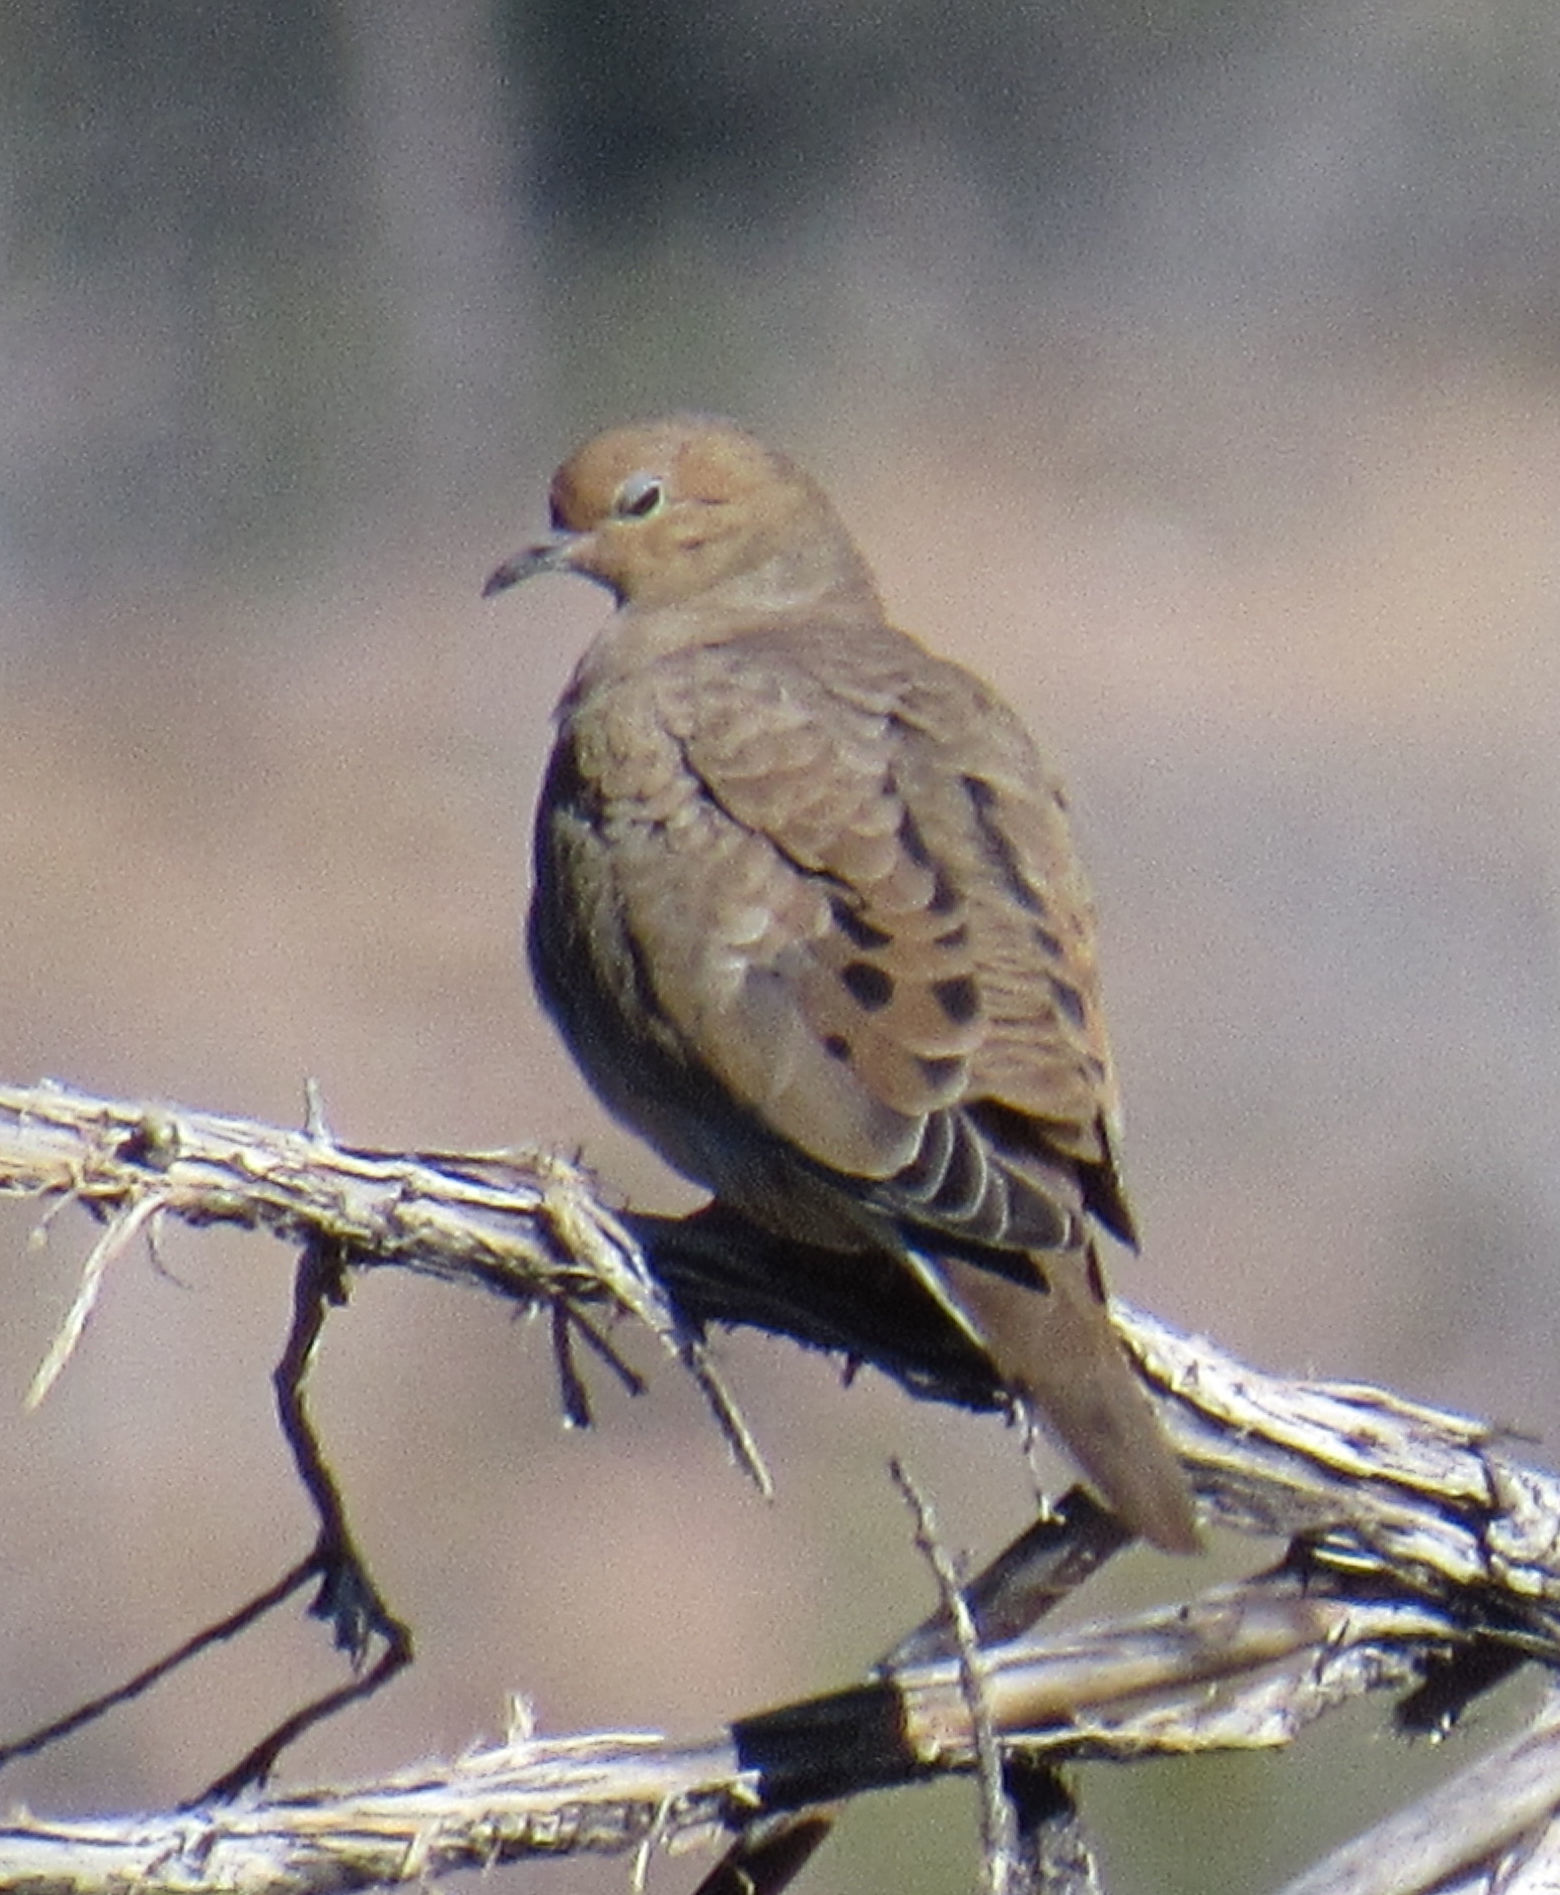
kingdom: Animalia
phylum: Chordata
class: Aves
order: Columbiformes
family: Columbidae
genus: Zenaida
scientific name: Zenaida macroura
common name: Mourning dove
